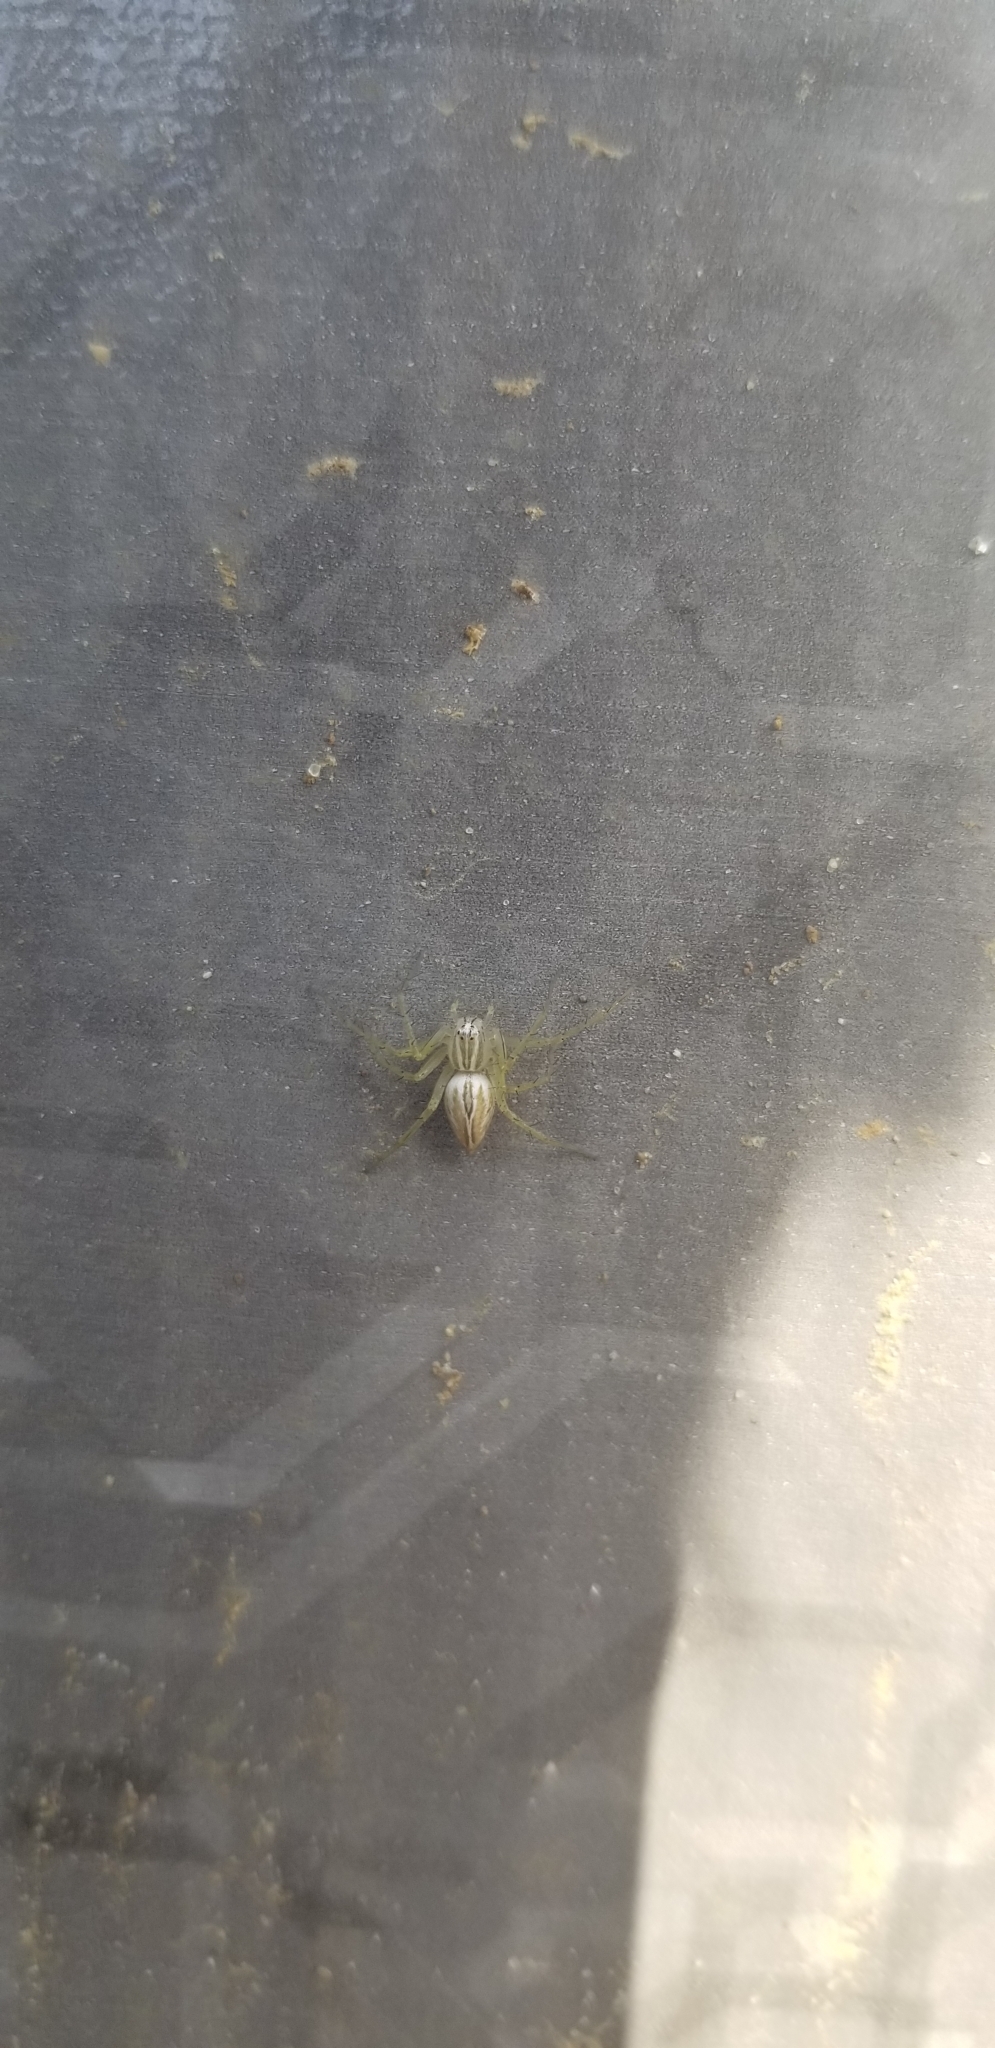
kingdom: Animalia
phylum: Arthropoda
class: Arachnida
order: Araneae
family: Oxyopidae
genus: Oxyopes
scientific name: Oxyopes salticus
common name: Lynx spiders
